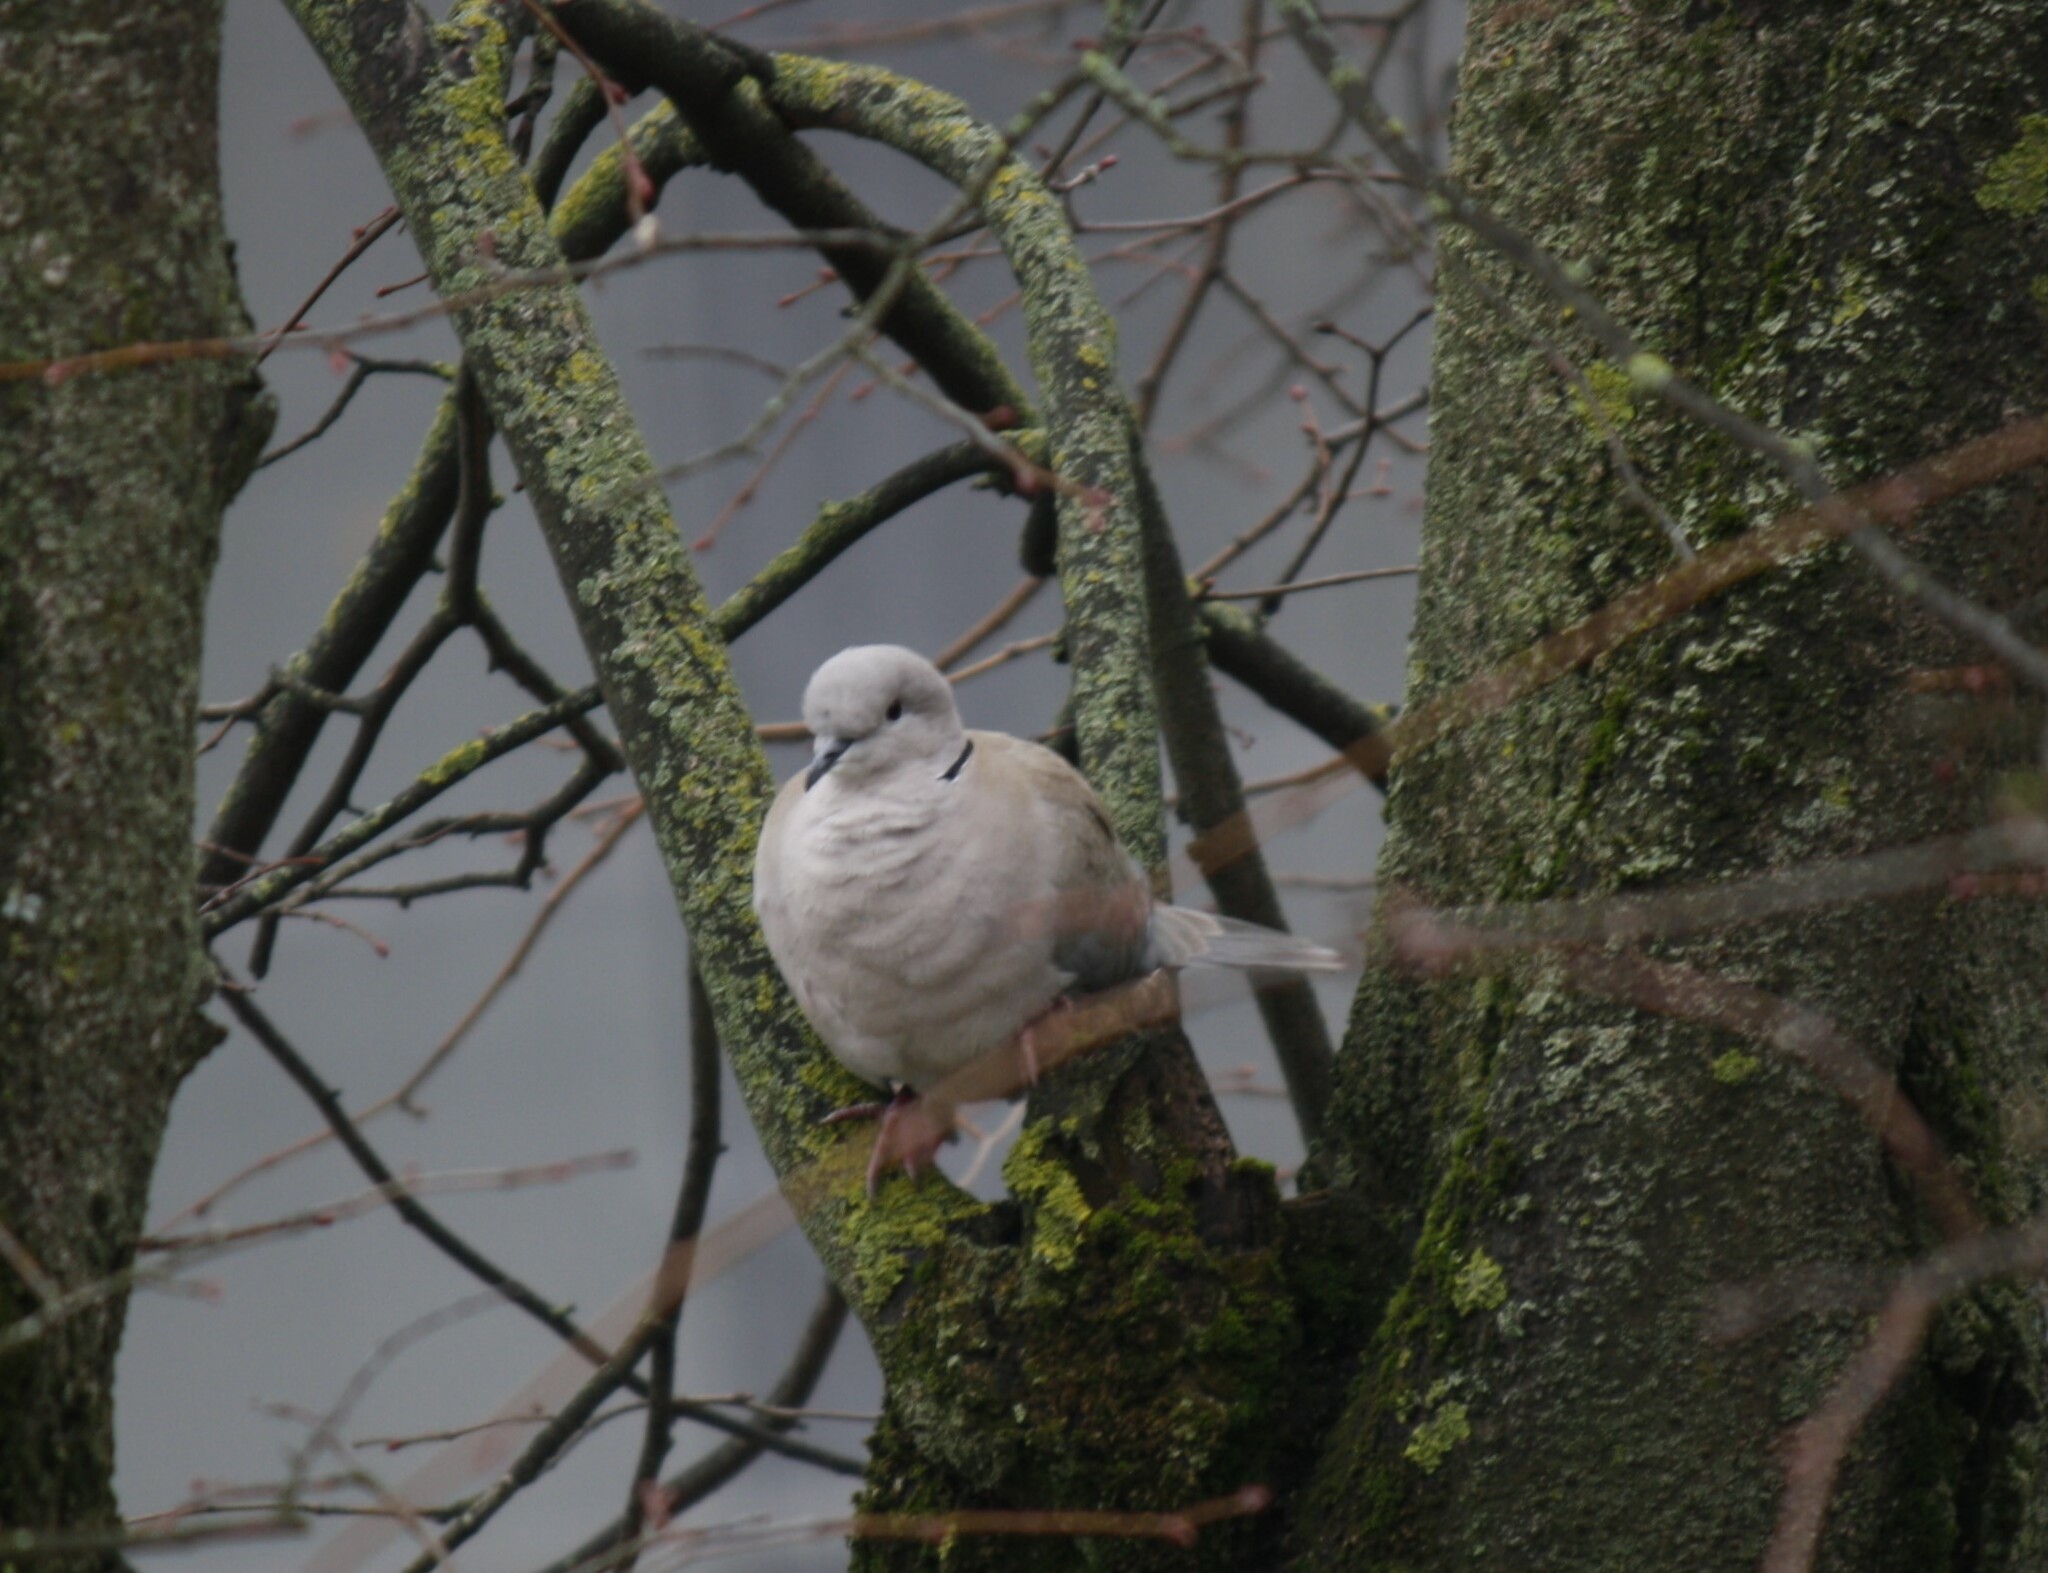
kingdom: Animalia
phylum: Chordata
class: Aves
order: Columbiformes
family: Columbidae
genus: Streptopelia
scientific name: Streptopelia decaocto
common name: Eurasian collared dove
